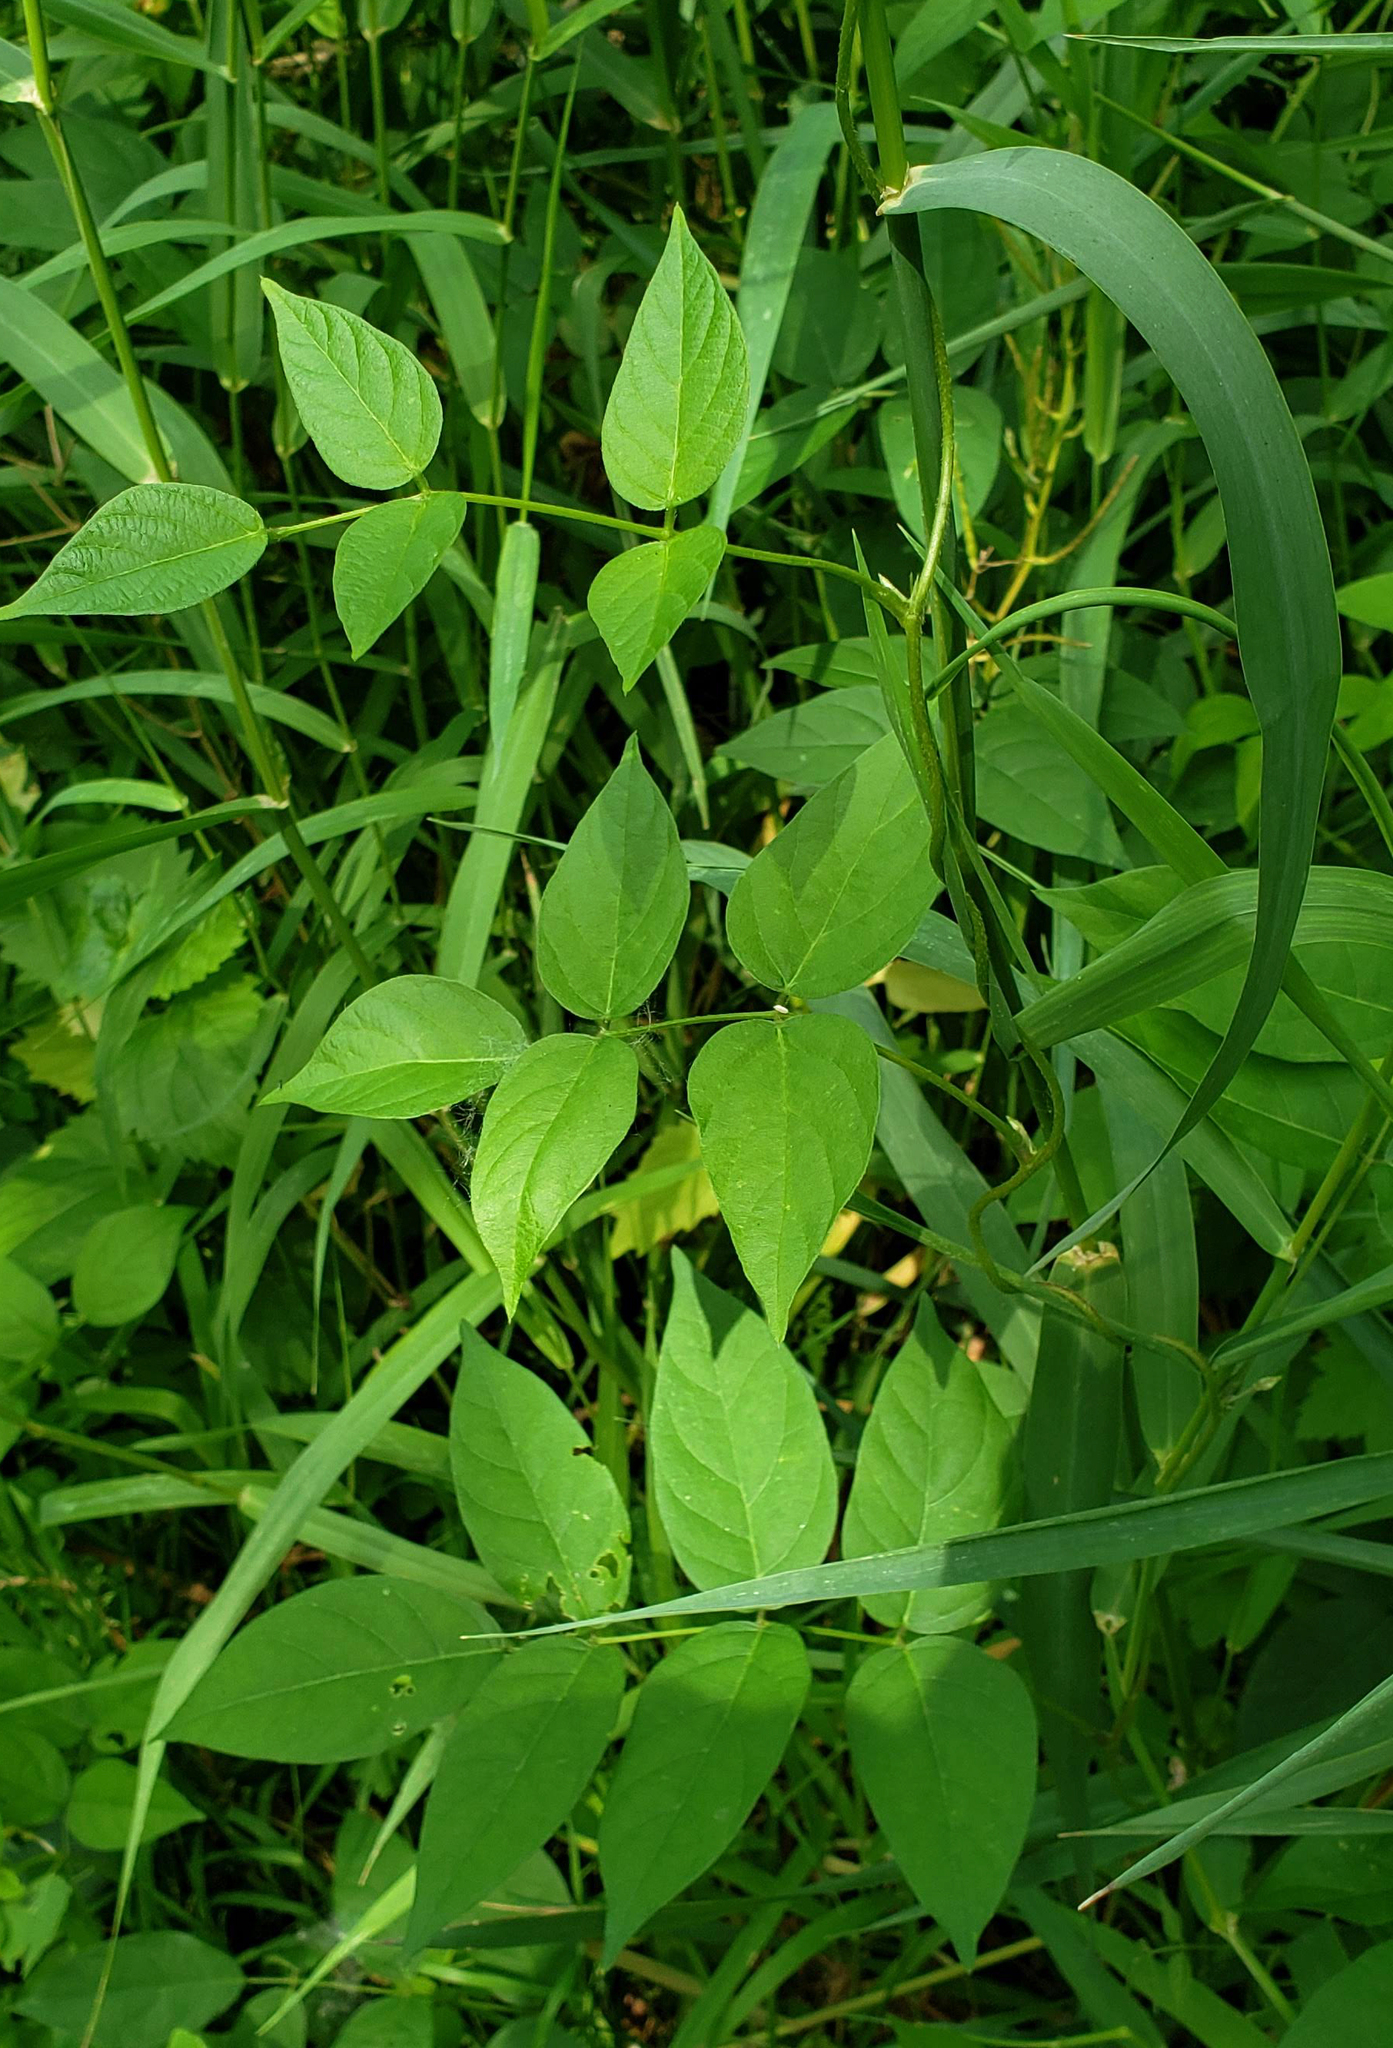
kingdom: Plantae
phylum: Tracheophyta
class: Magnoliopsida
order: Fabales
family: Fabaceae
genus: Apios
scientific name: Apios americana
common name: American potato-bean
